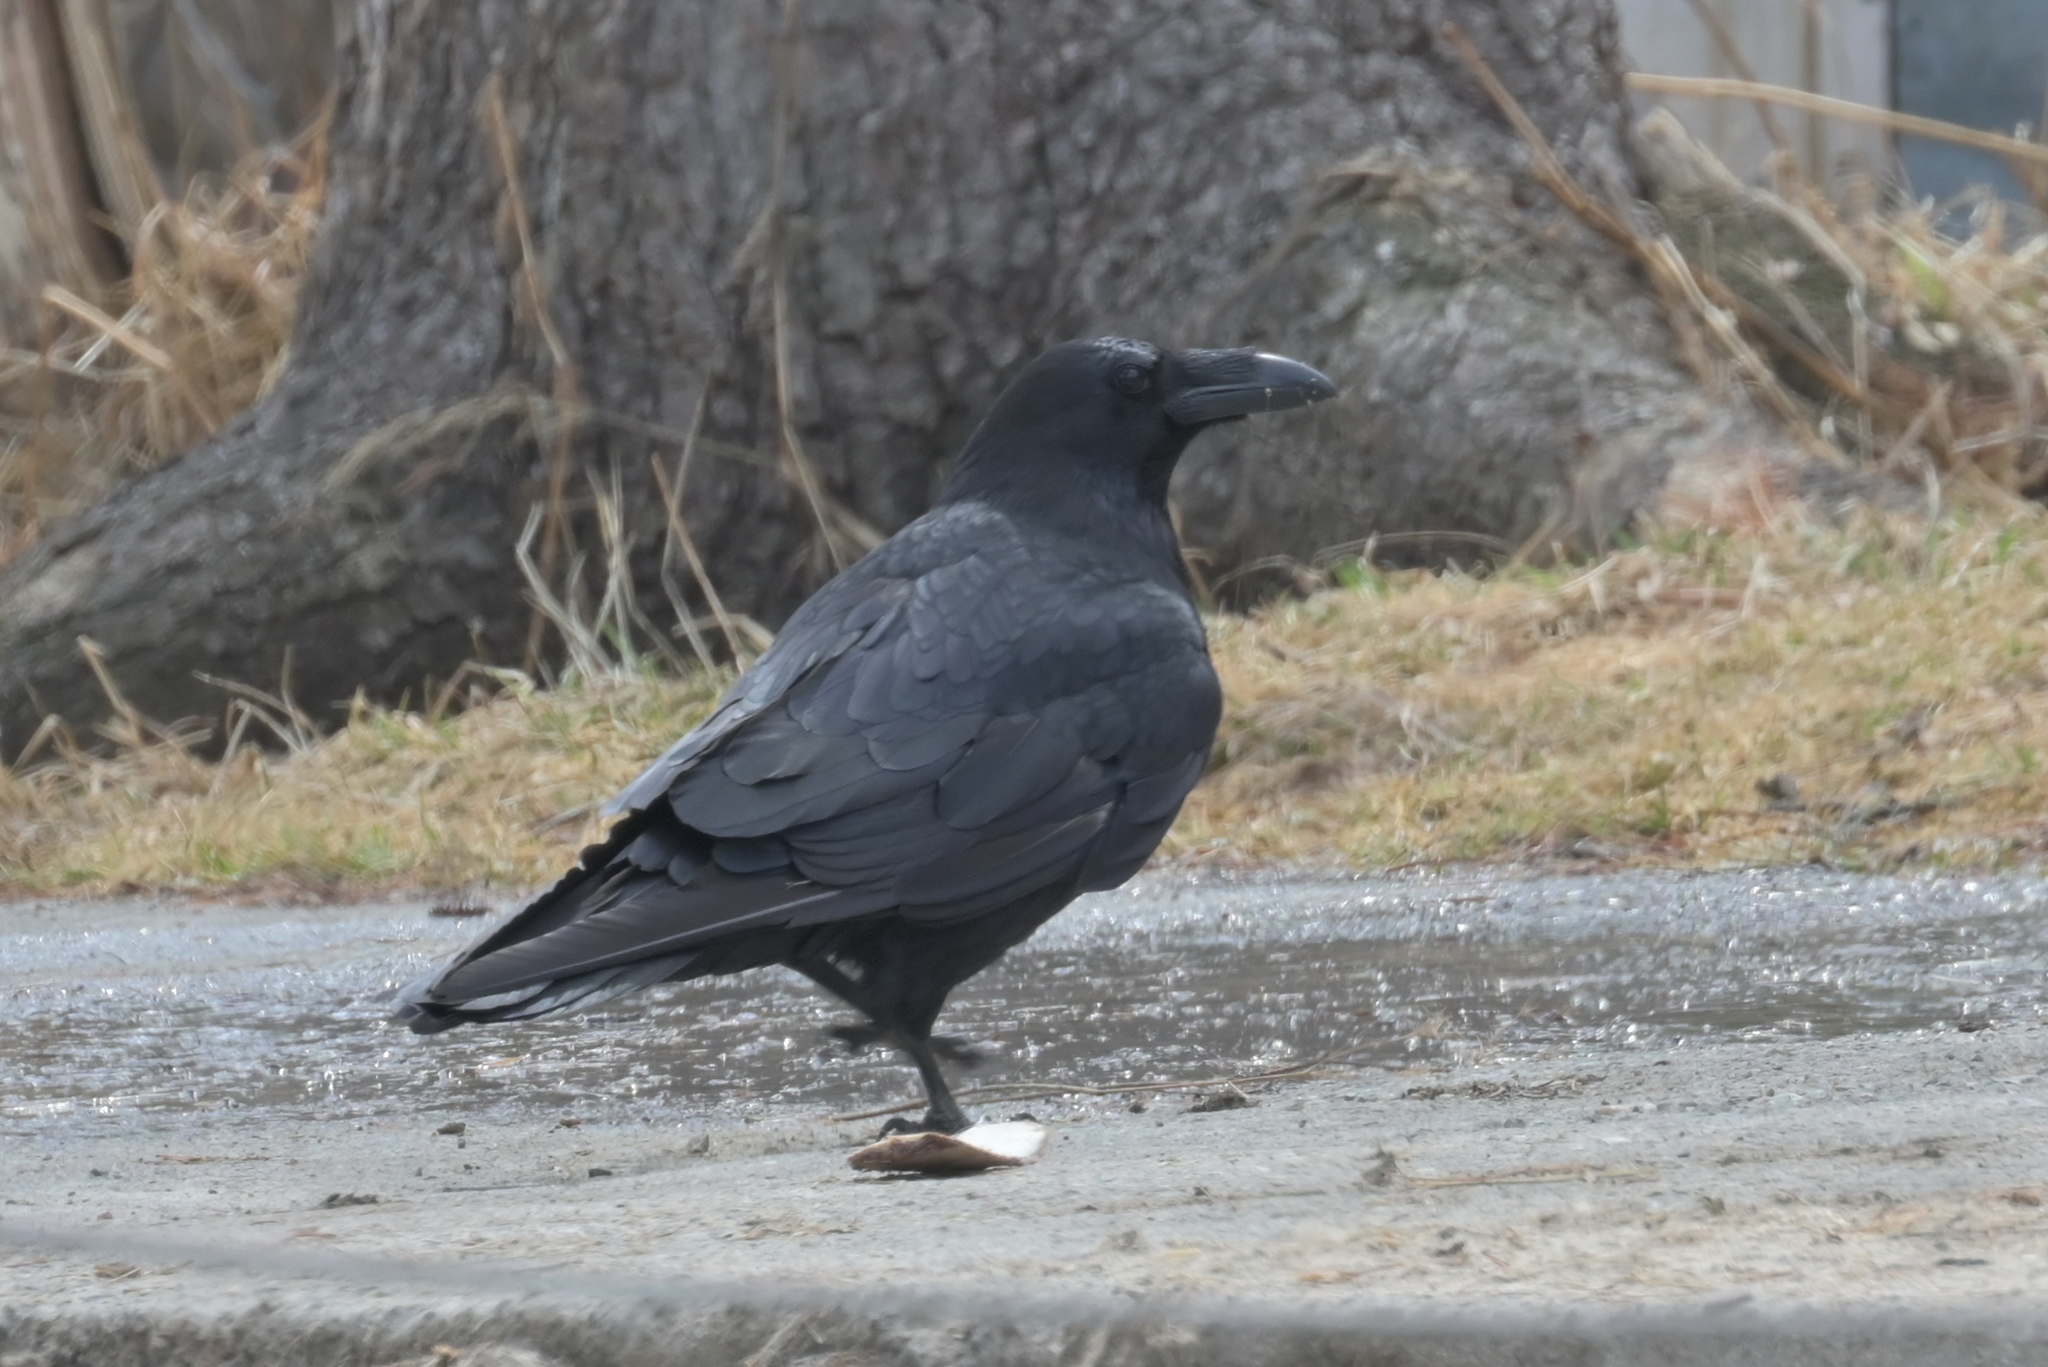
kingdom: Animalia
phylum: Chordata
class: Aves
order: Passeriformes
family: Corvidae
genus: Corvus
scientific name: Corvus corax
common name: Common raven
